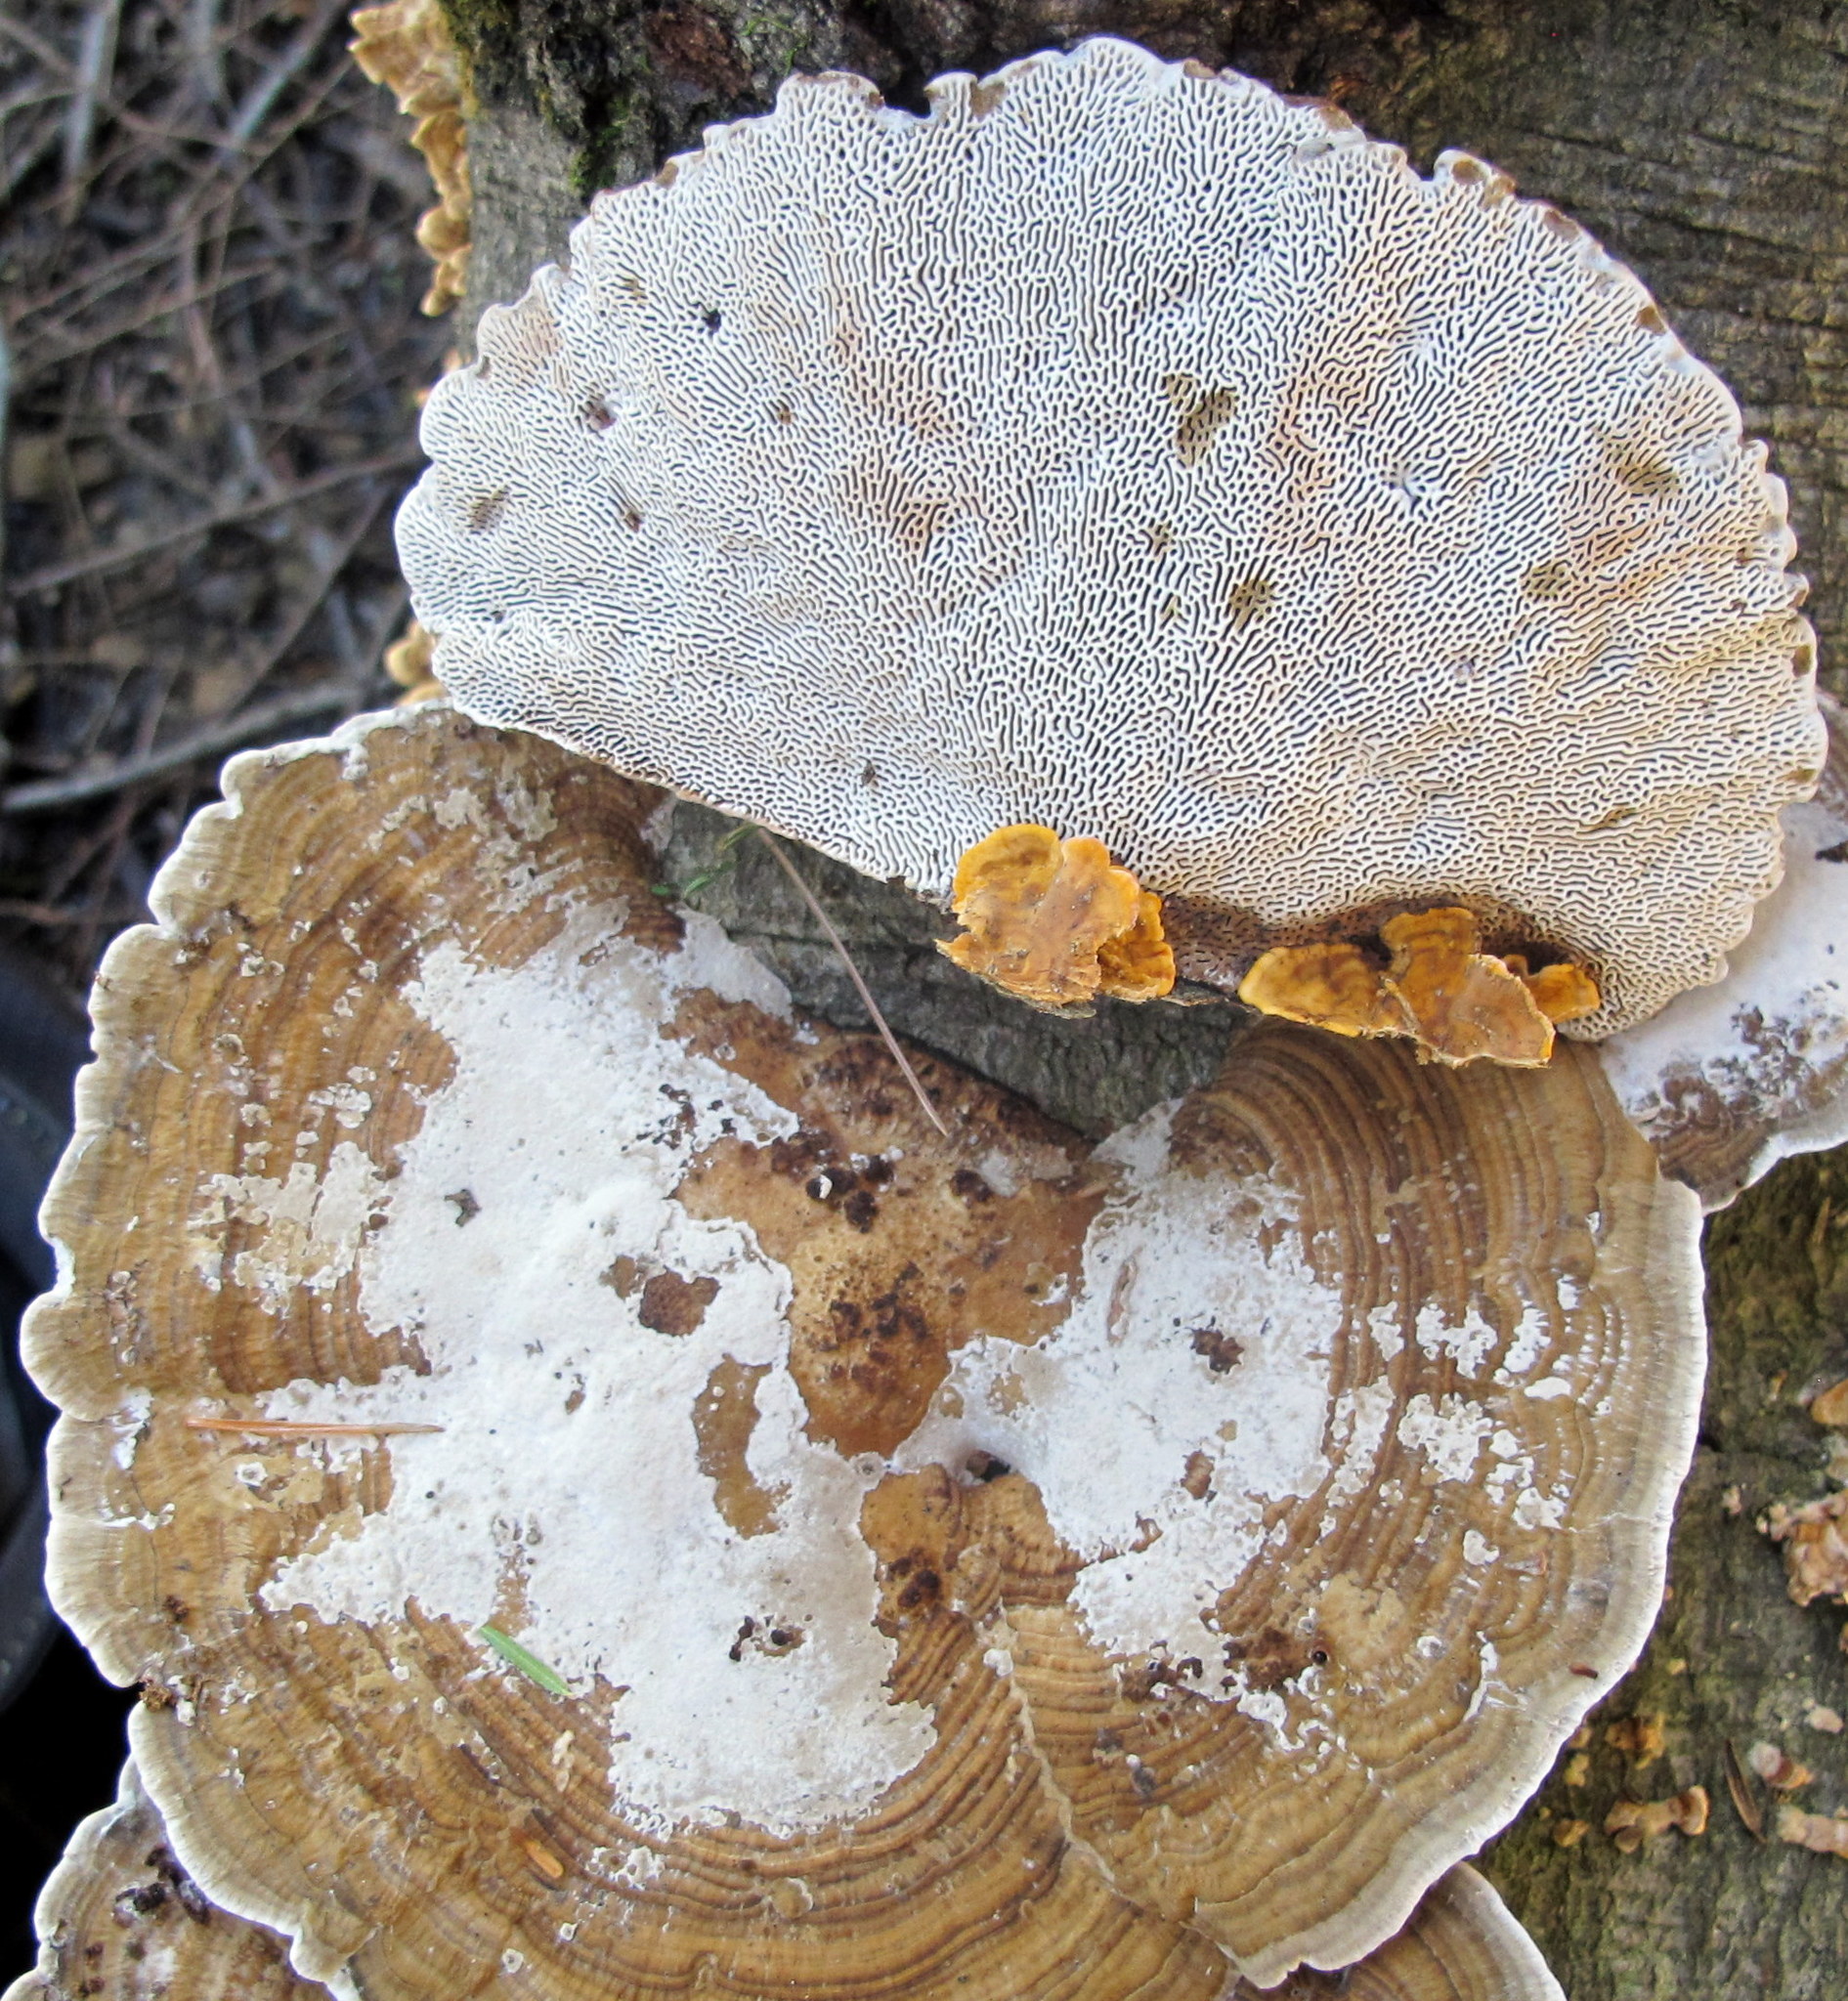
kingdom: Fungi
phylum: Basidiomycota
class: Agaricomycetes
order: Polyporales
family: Polyporaceae
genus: Daedaleopsis
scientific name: Daedaleopsis confragosa
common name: Blushing bracket
